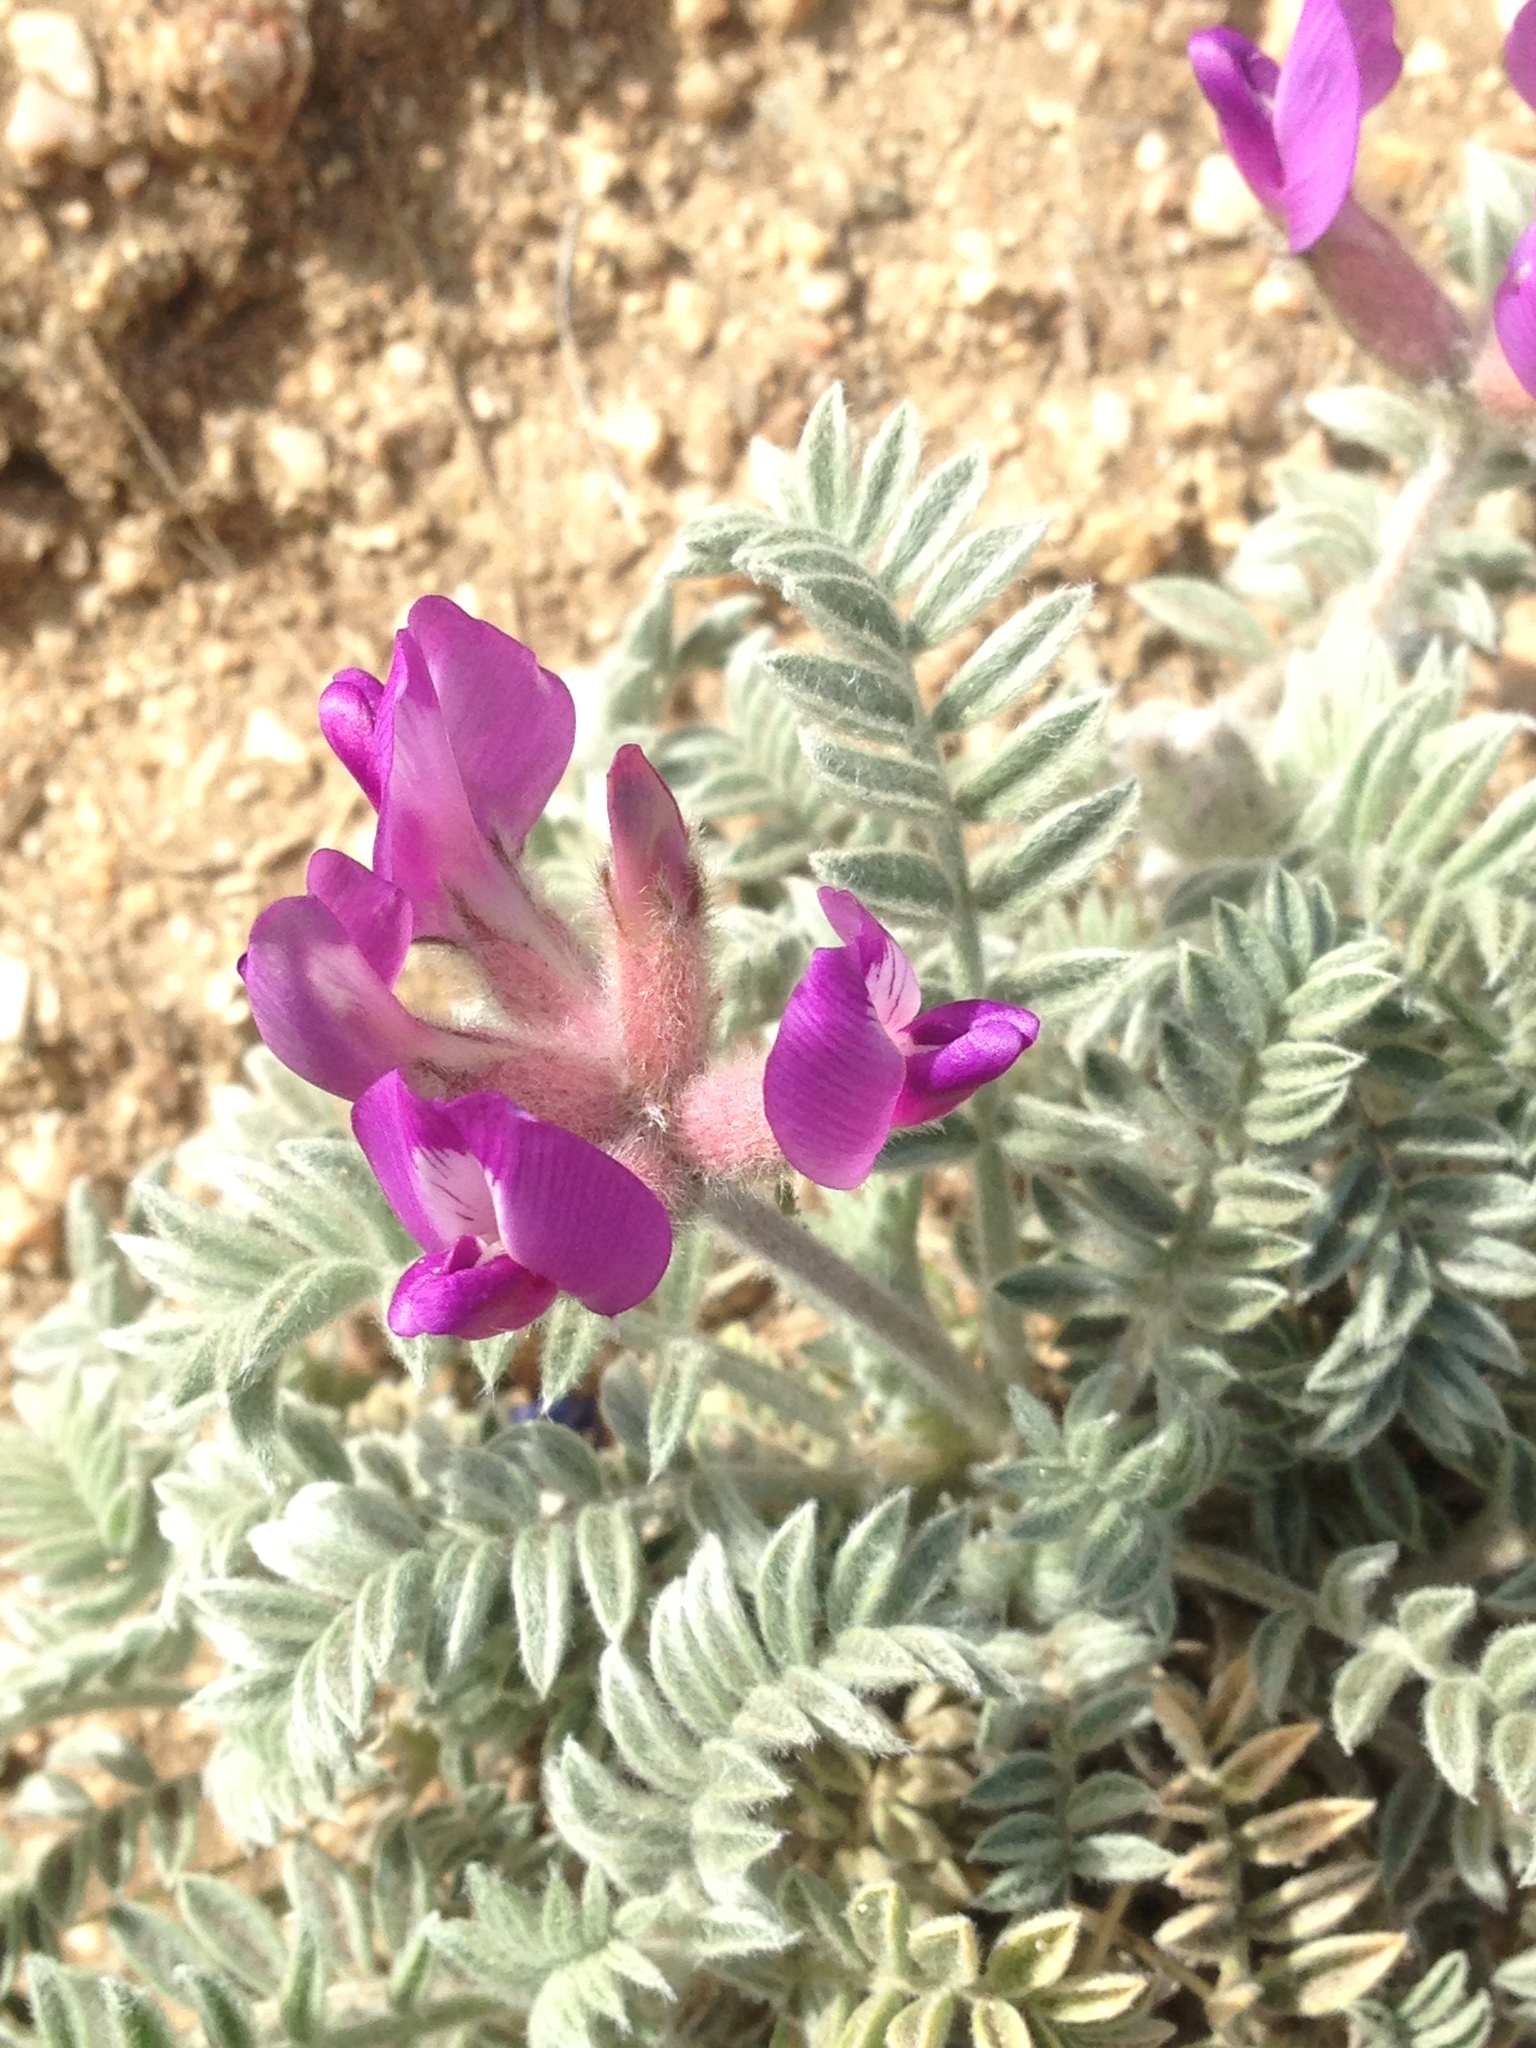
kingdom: Plantae
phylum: Tracheophyta
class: Magnoliopsida
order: Fabales
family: Fabaceae
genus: Astragalus
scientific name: Astragalus purshii
